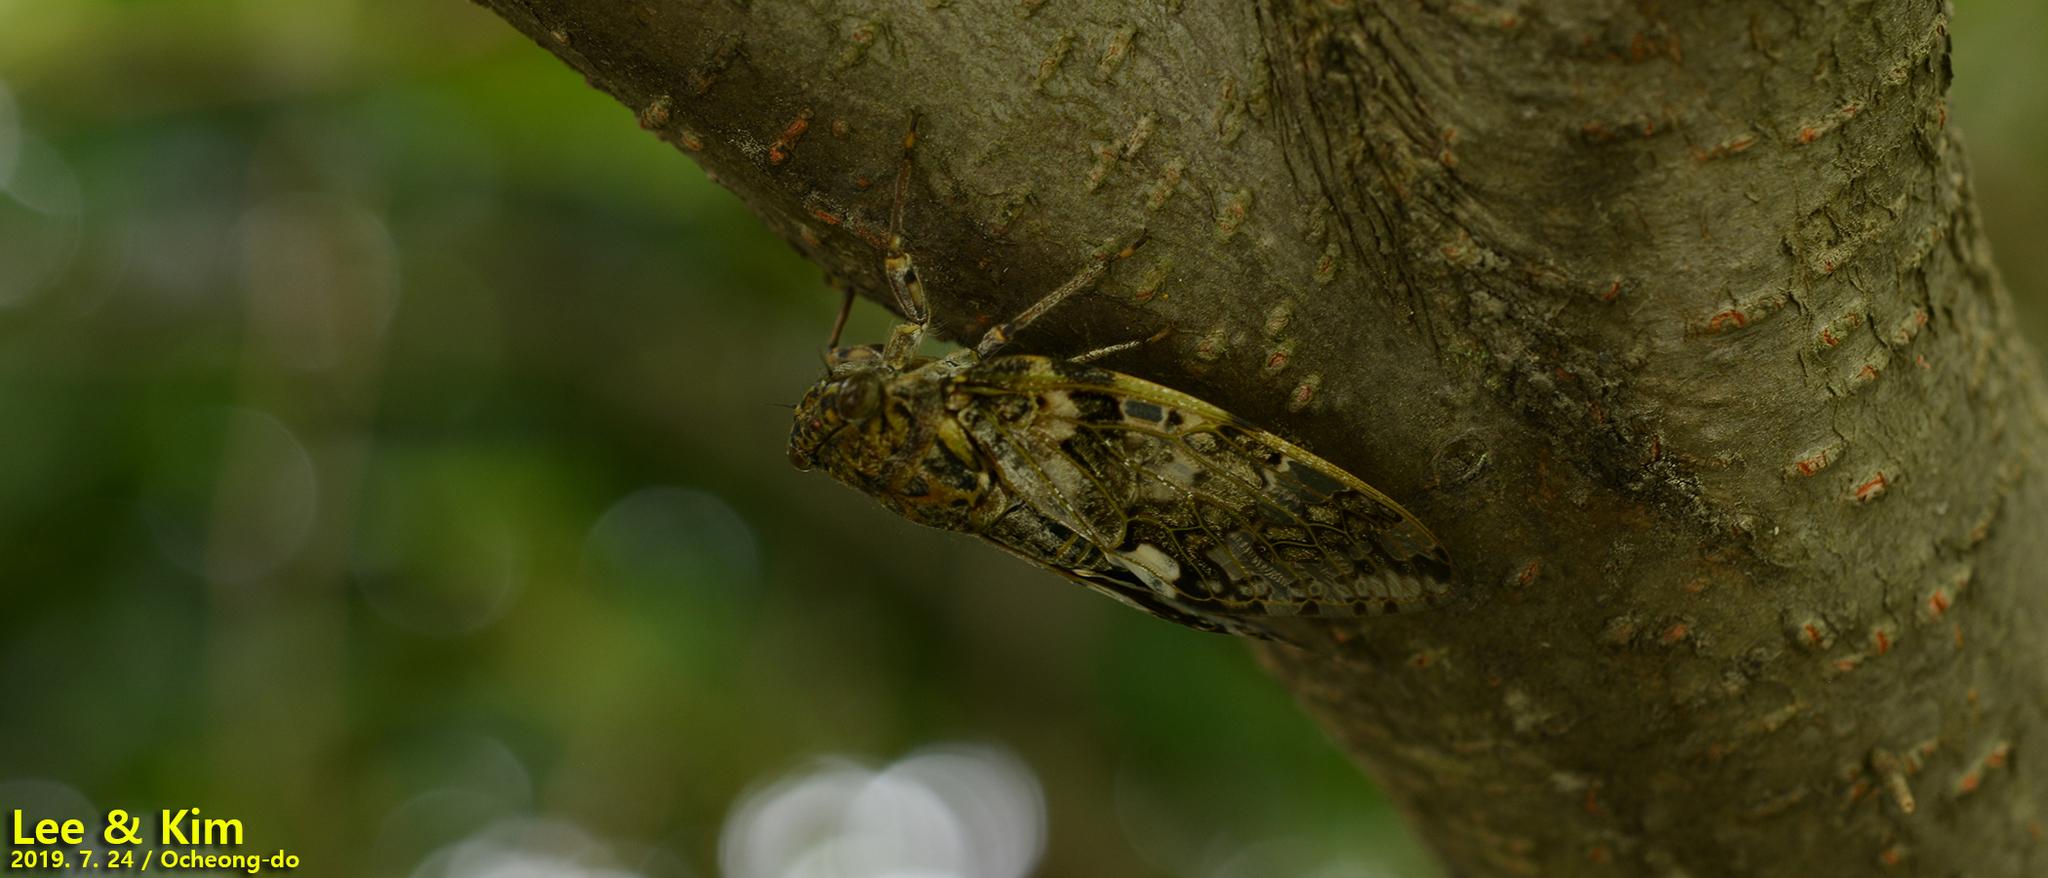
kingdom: Animalia
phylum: Arthropoda
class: Insecta
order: Hemiptera
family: Cicadidae
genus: Platypleura
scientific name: Platypleura kaempferi
